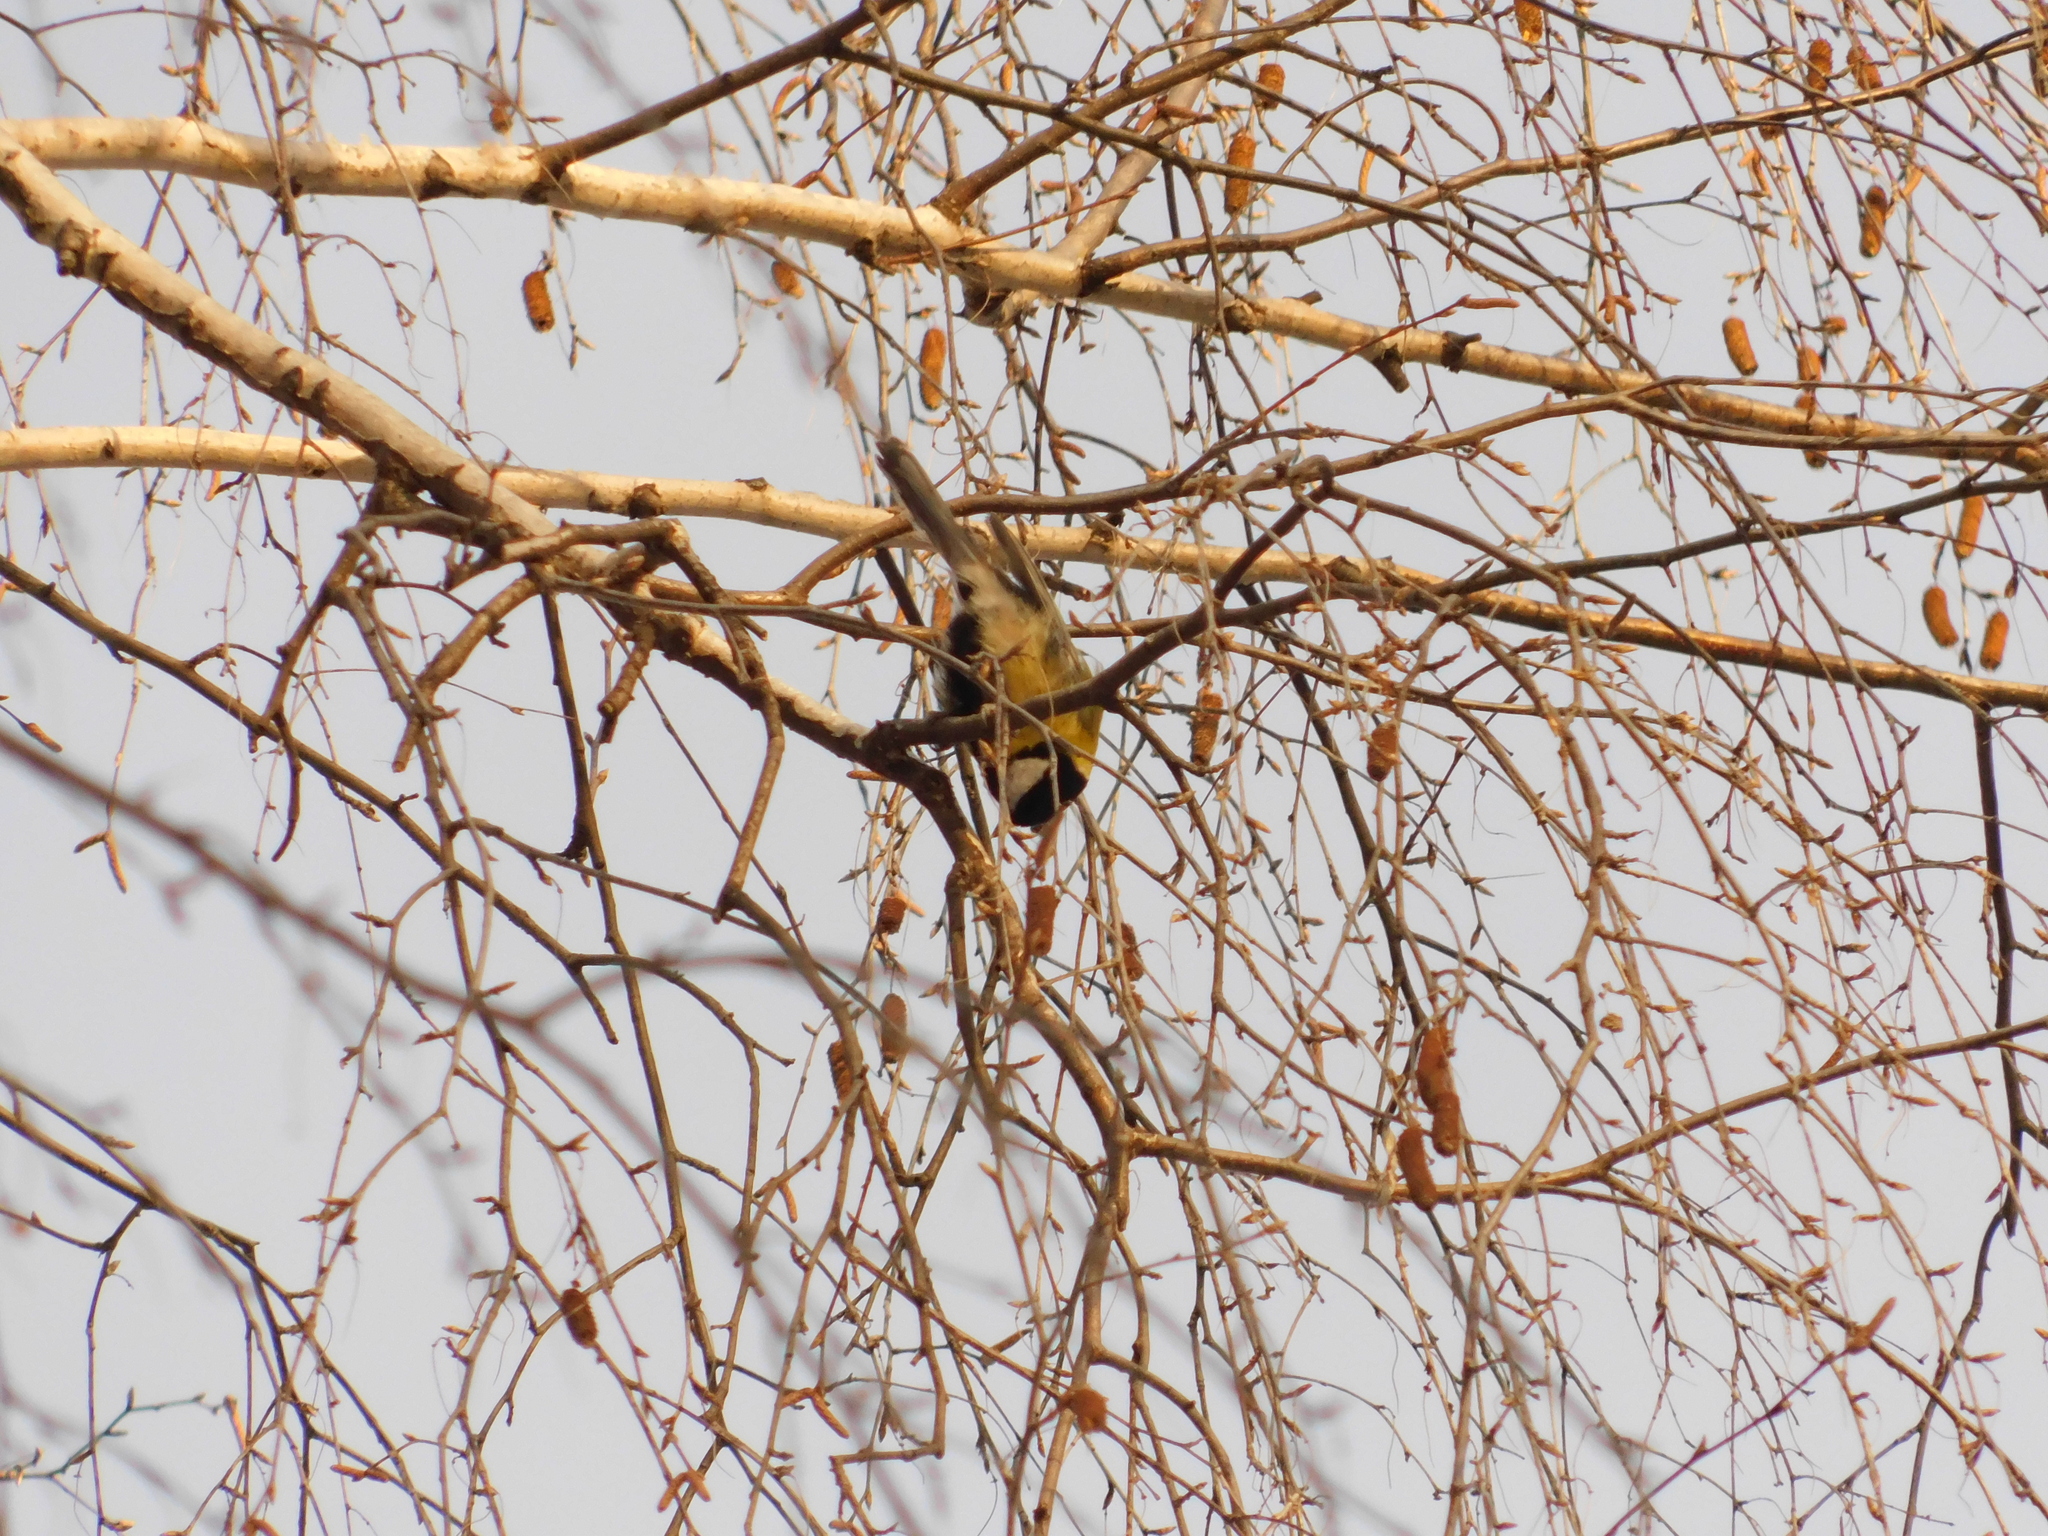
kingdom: Animalia
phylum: Chordata
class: Aves
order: Passeriformes
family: Paridae
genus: Parus
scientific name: Parus major
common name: Great tit
